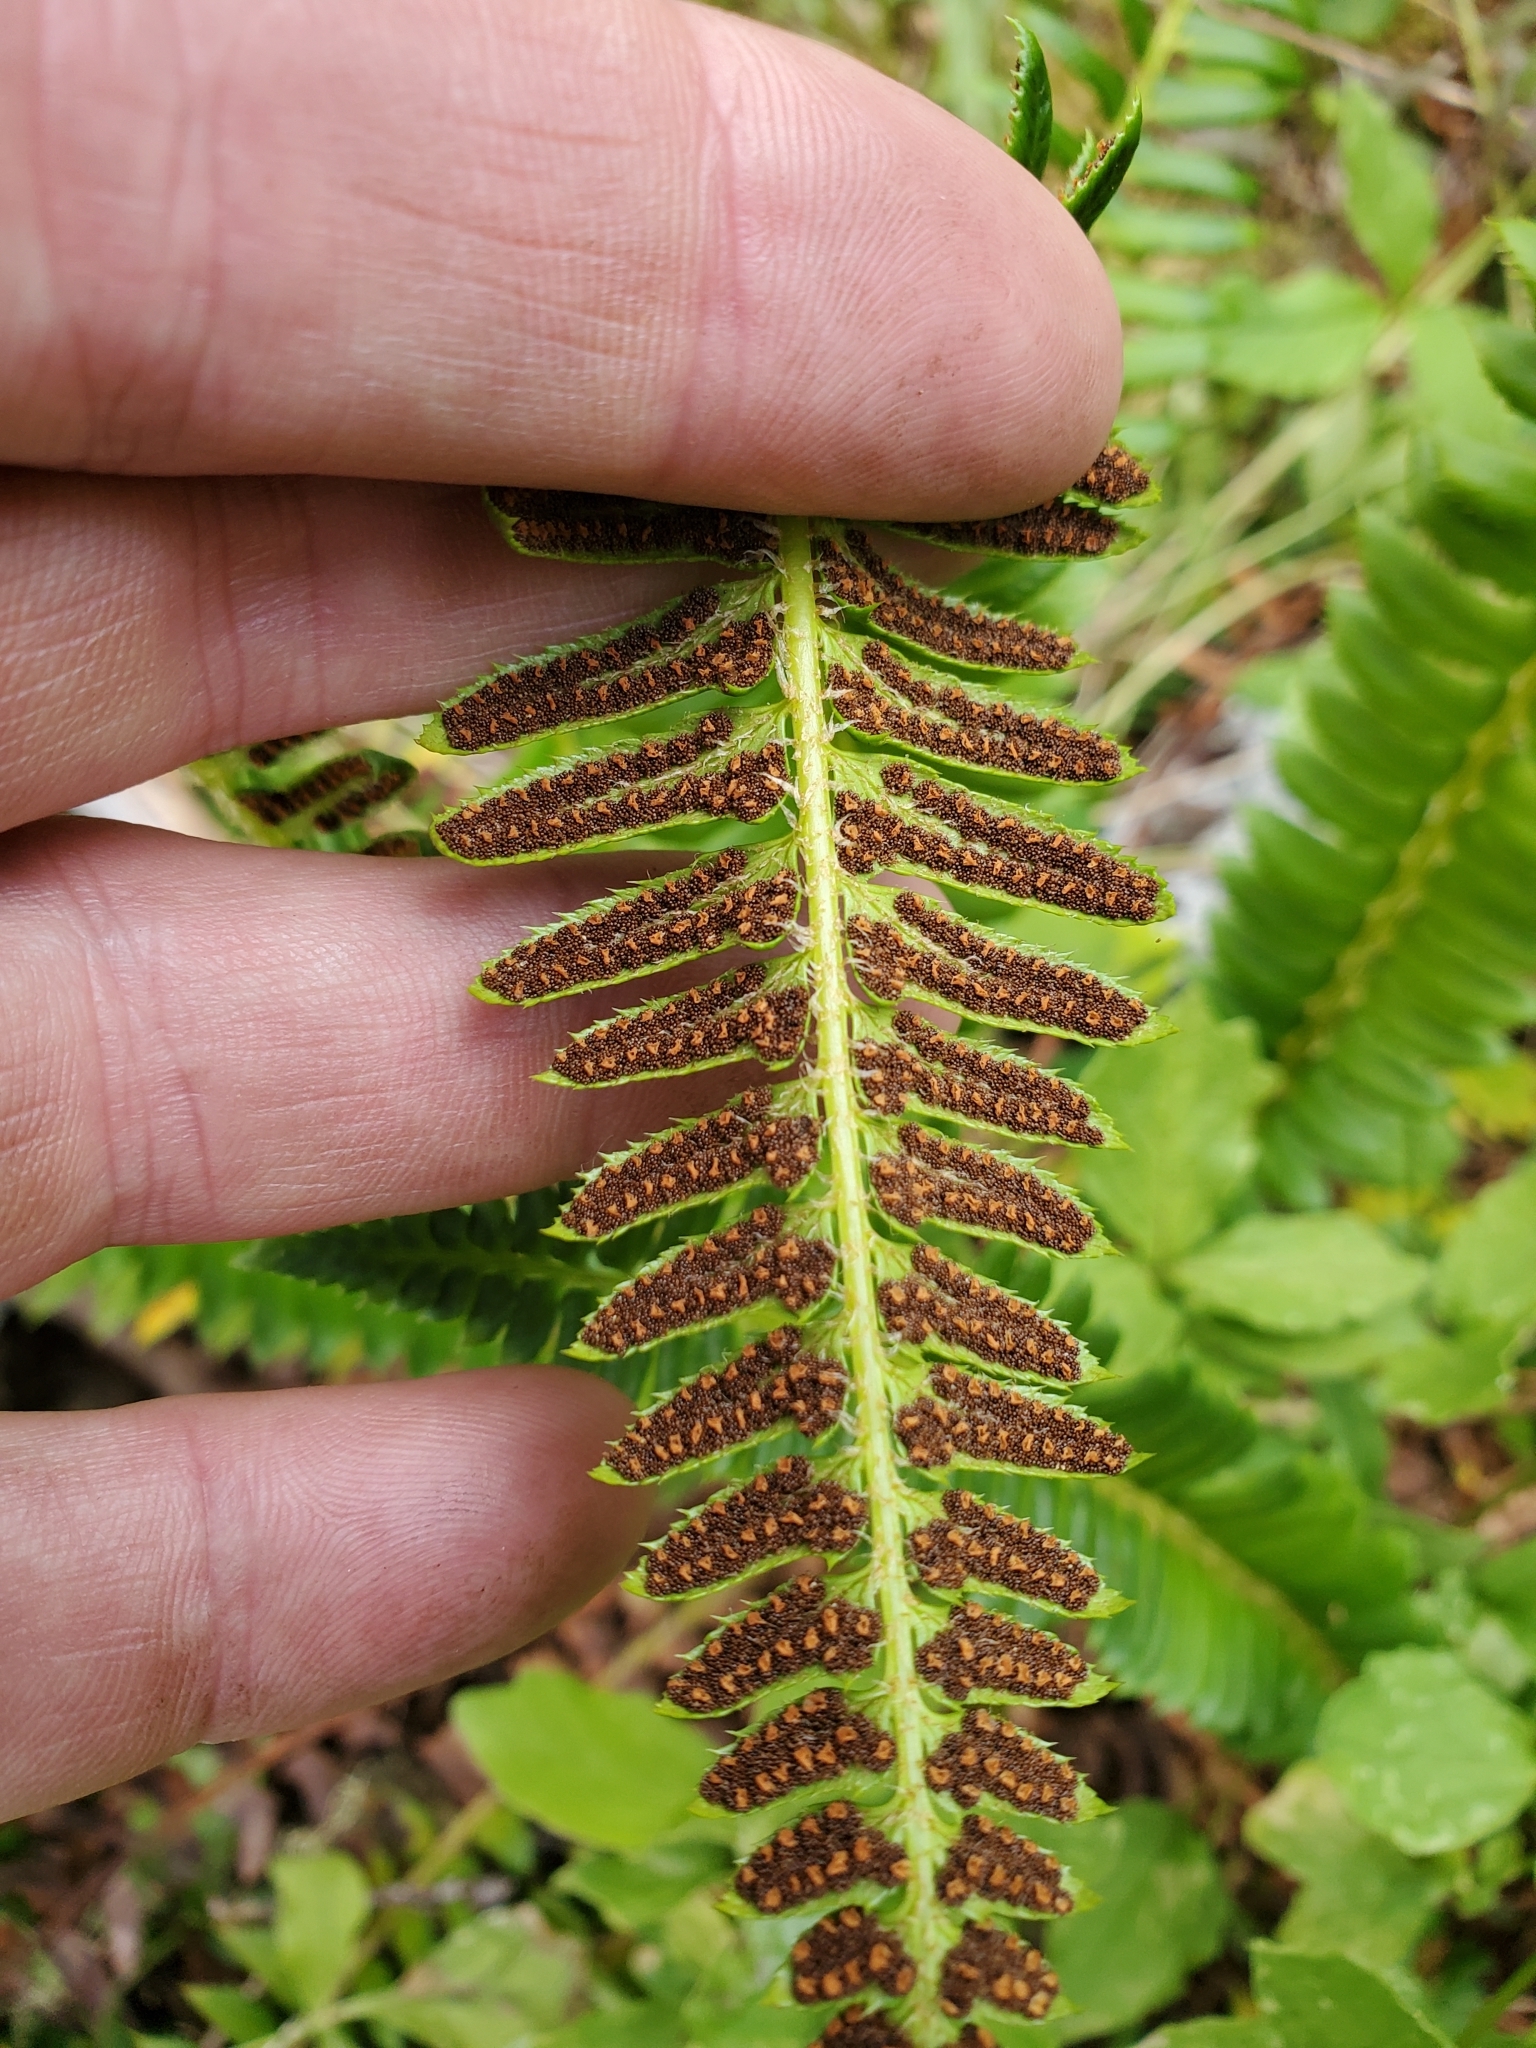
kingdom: Plantae
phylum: Tracheophyta
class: Polypodiopsida
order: Polypodiales
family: Dryopteridaceae
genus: Polystichum
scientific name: Polystichum lonchitis
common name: Holly fern
